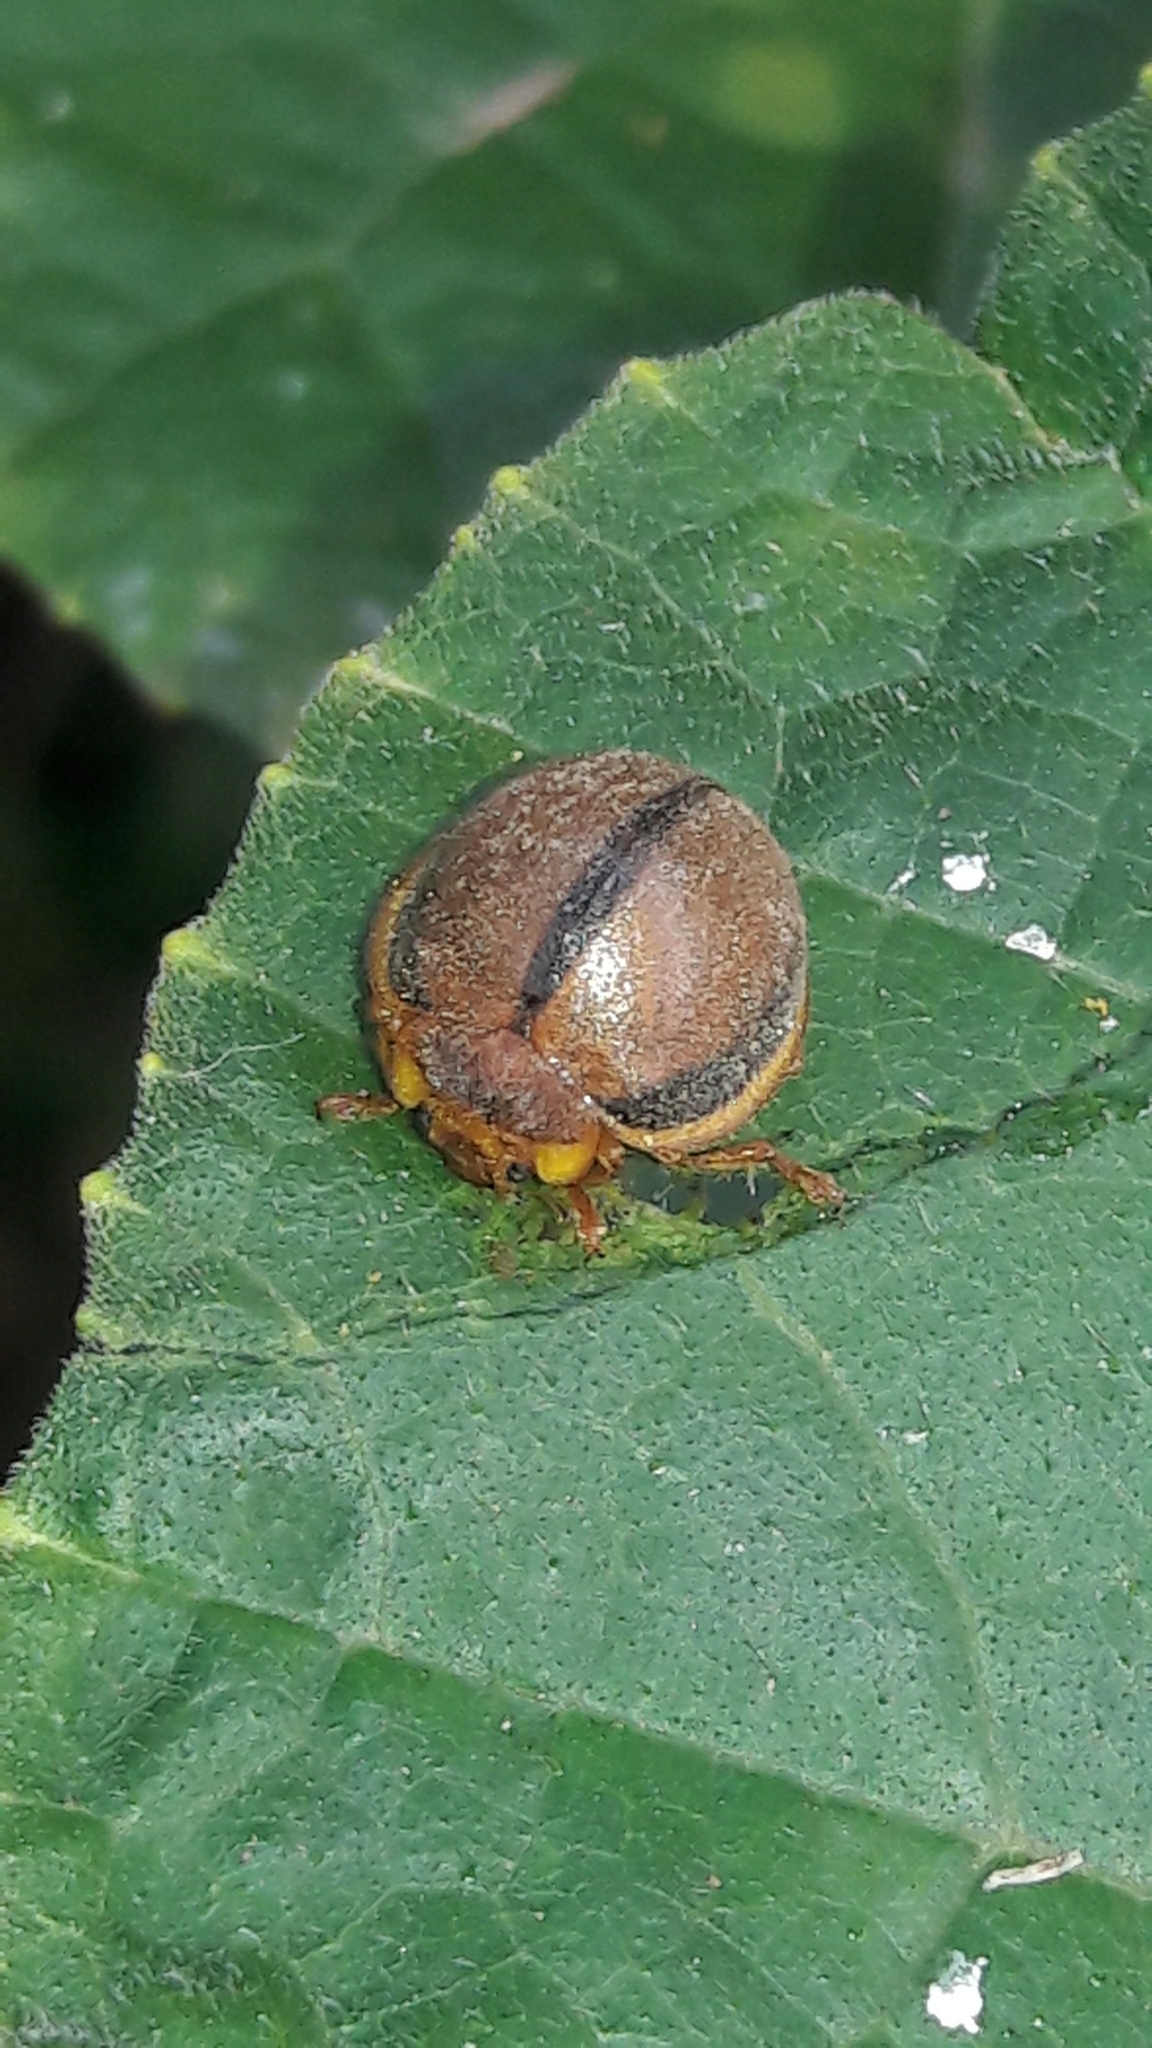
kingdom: Animalia
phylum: Arthropoda
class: Insecta
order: Coleoptera
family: Coccinellidae
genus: Epilachna
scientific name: Epilachna cacica
